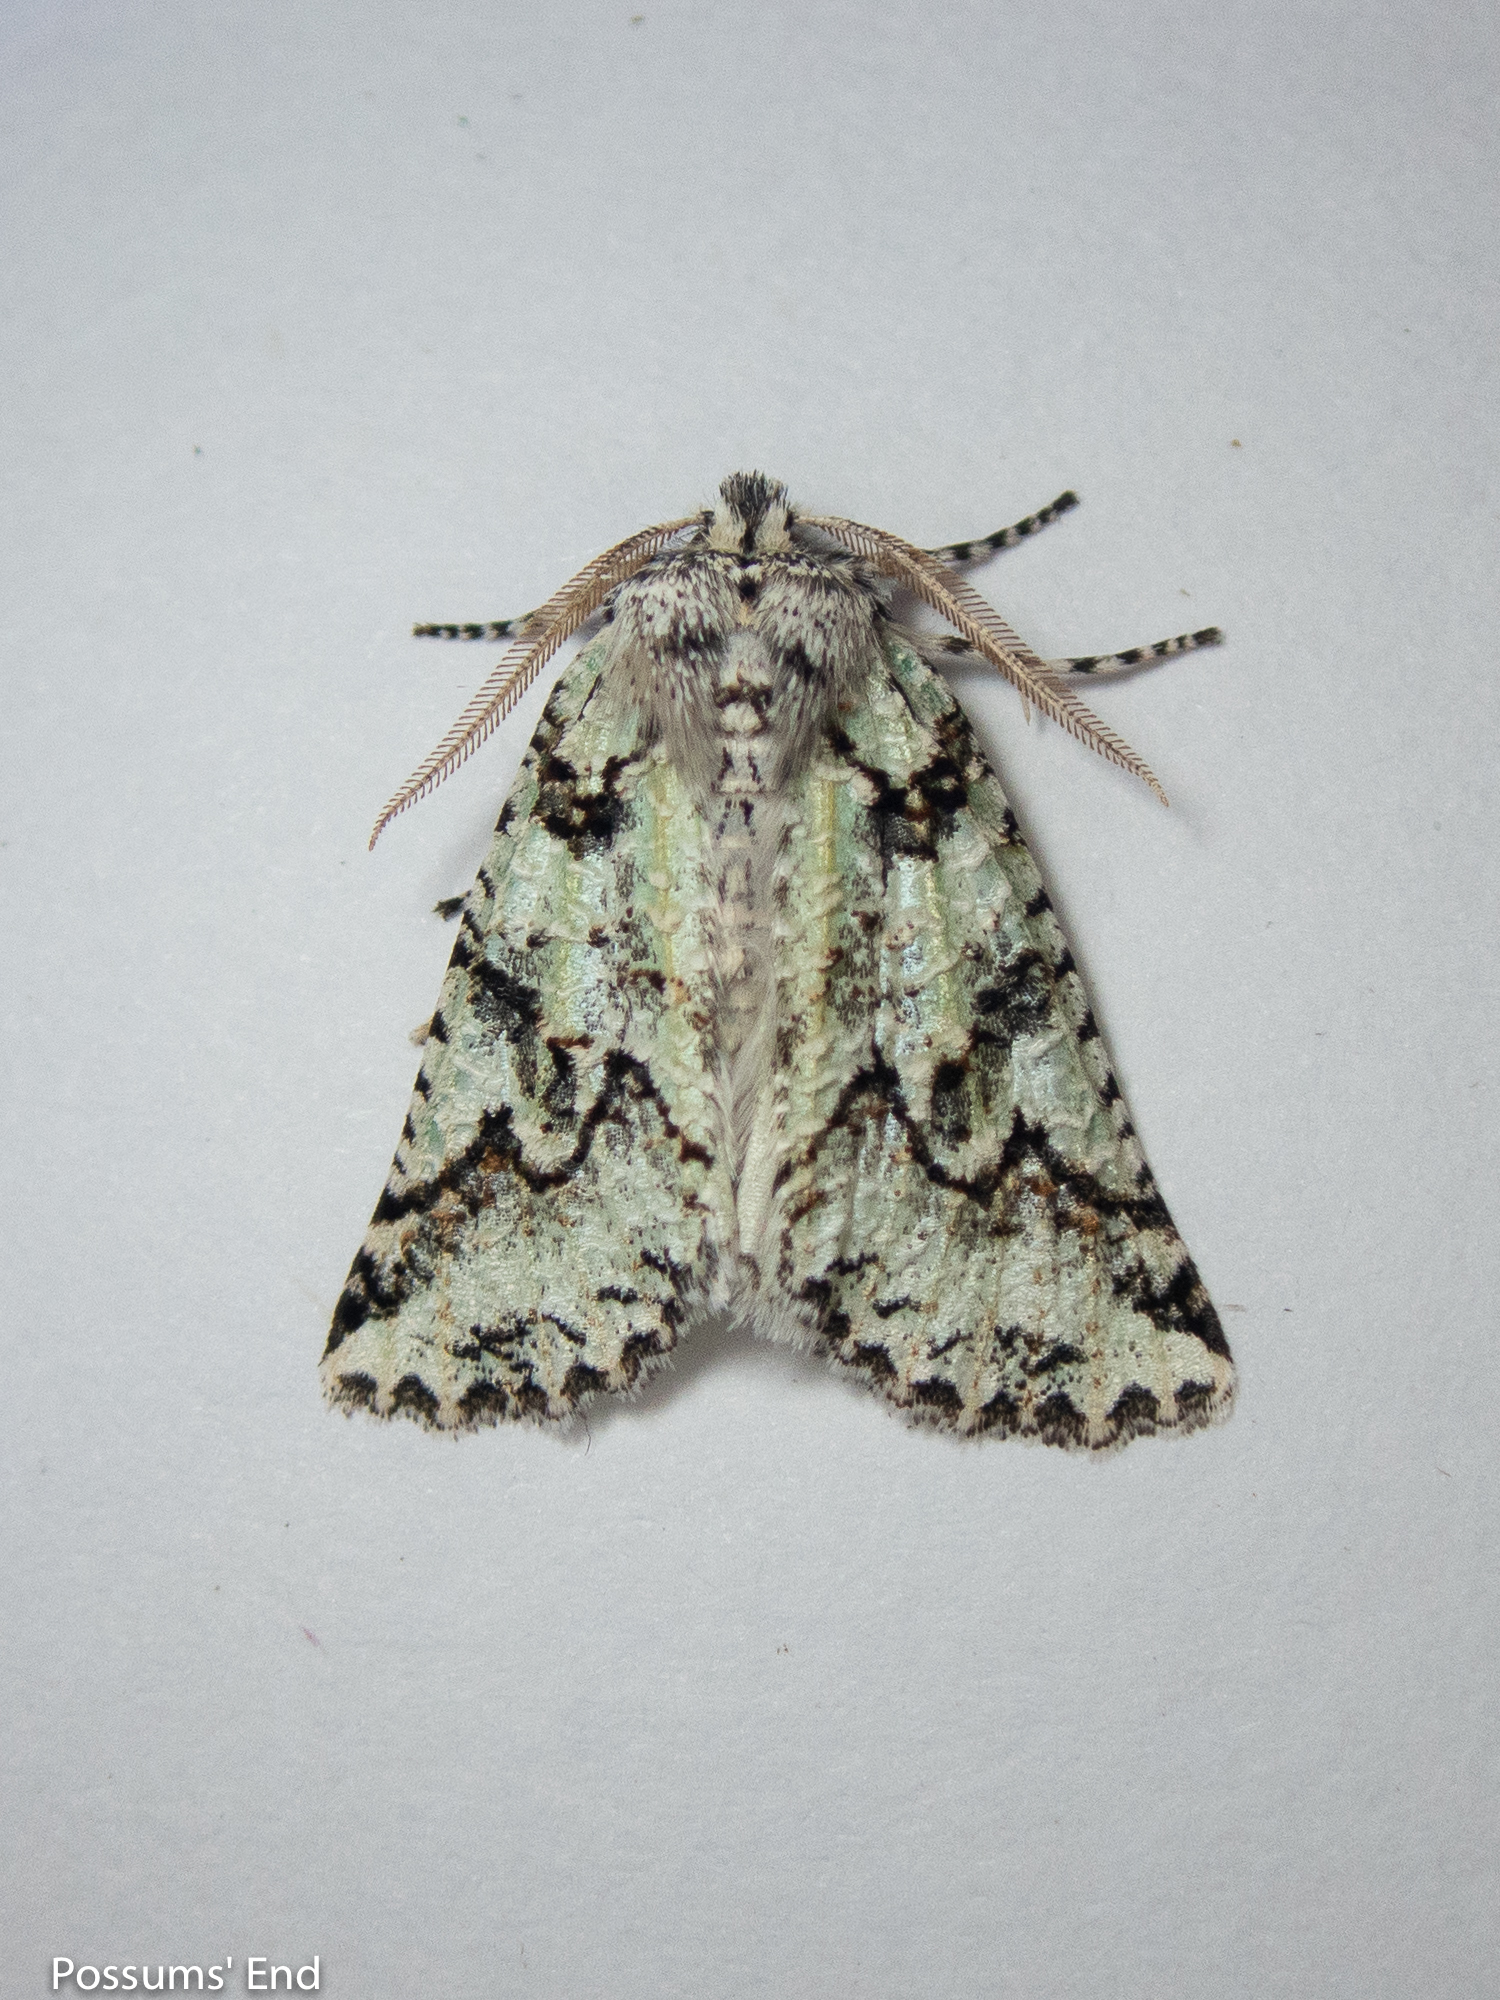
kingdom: Animalia
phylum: Arthropoda
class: Insecta
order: Lepidoptera
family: Geometridae
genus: Declana
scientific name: Declana floccosa
